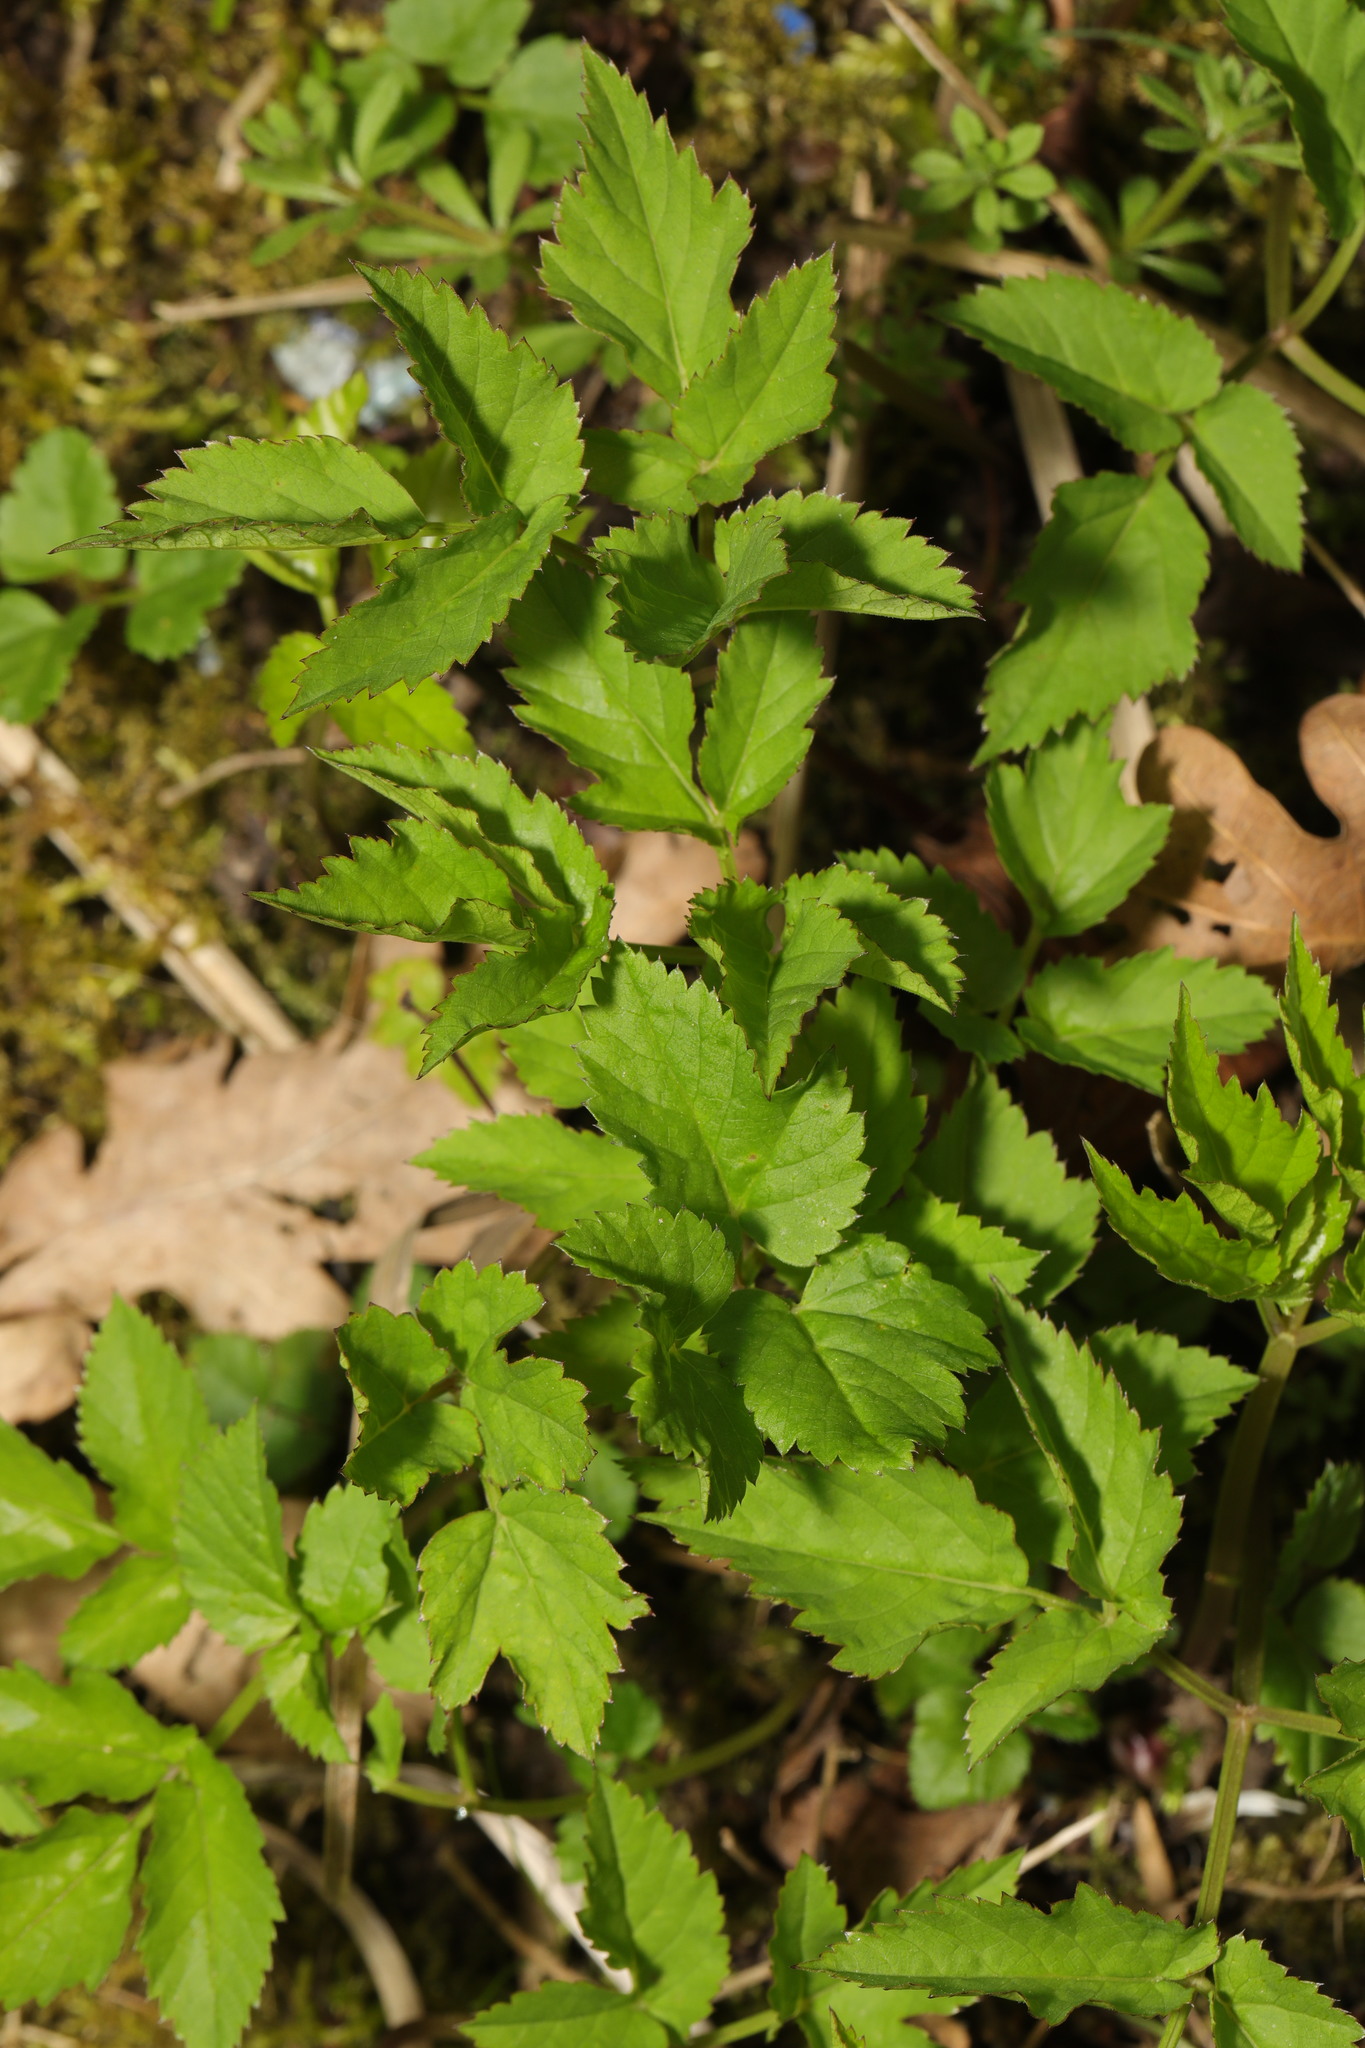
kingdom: Plantae
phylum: Tracheophyta
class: Magnoliopsida
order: Apiales
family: Apiaceae
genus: Aegopodium
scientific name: Aegopodium podagraria
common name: Ground-elder
